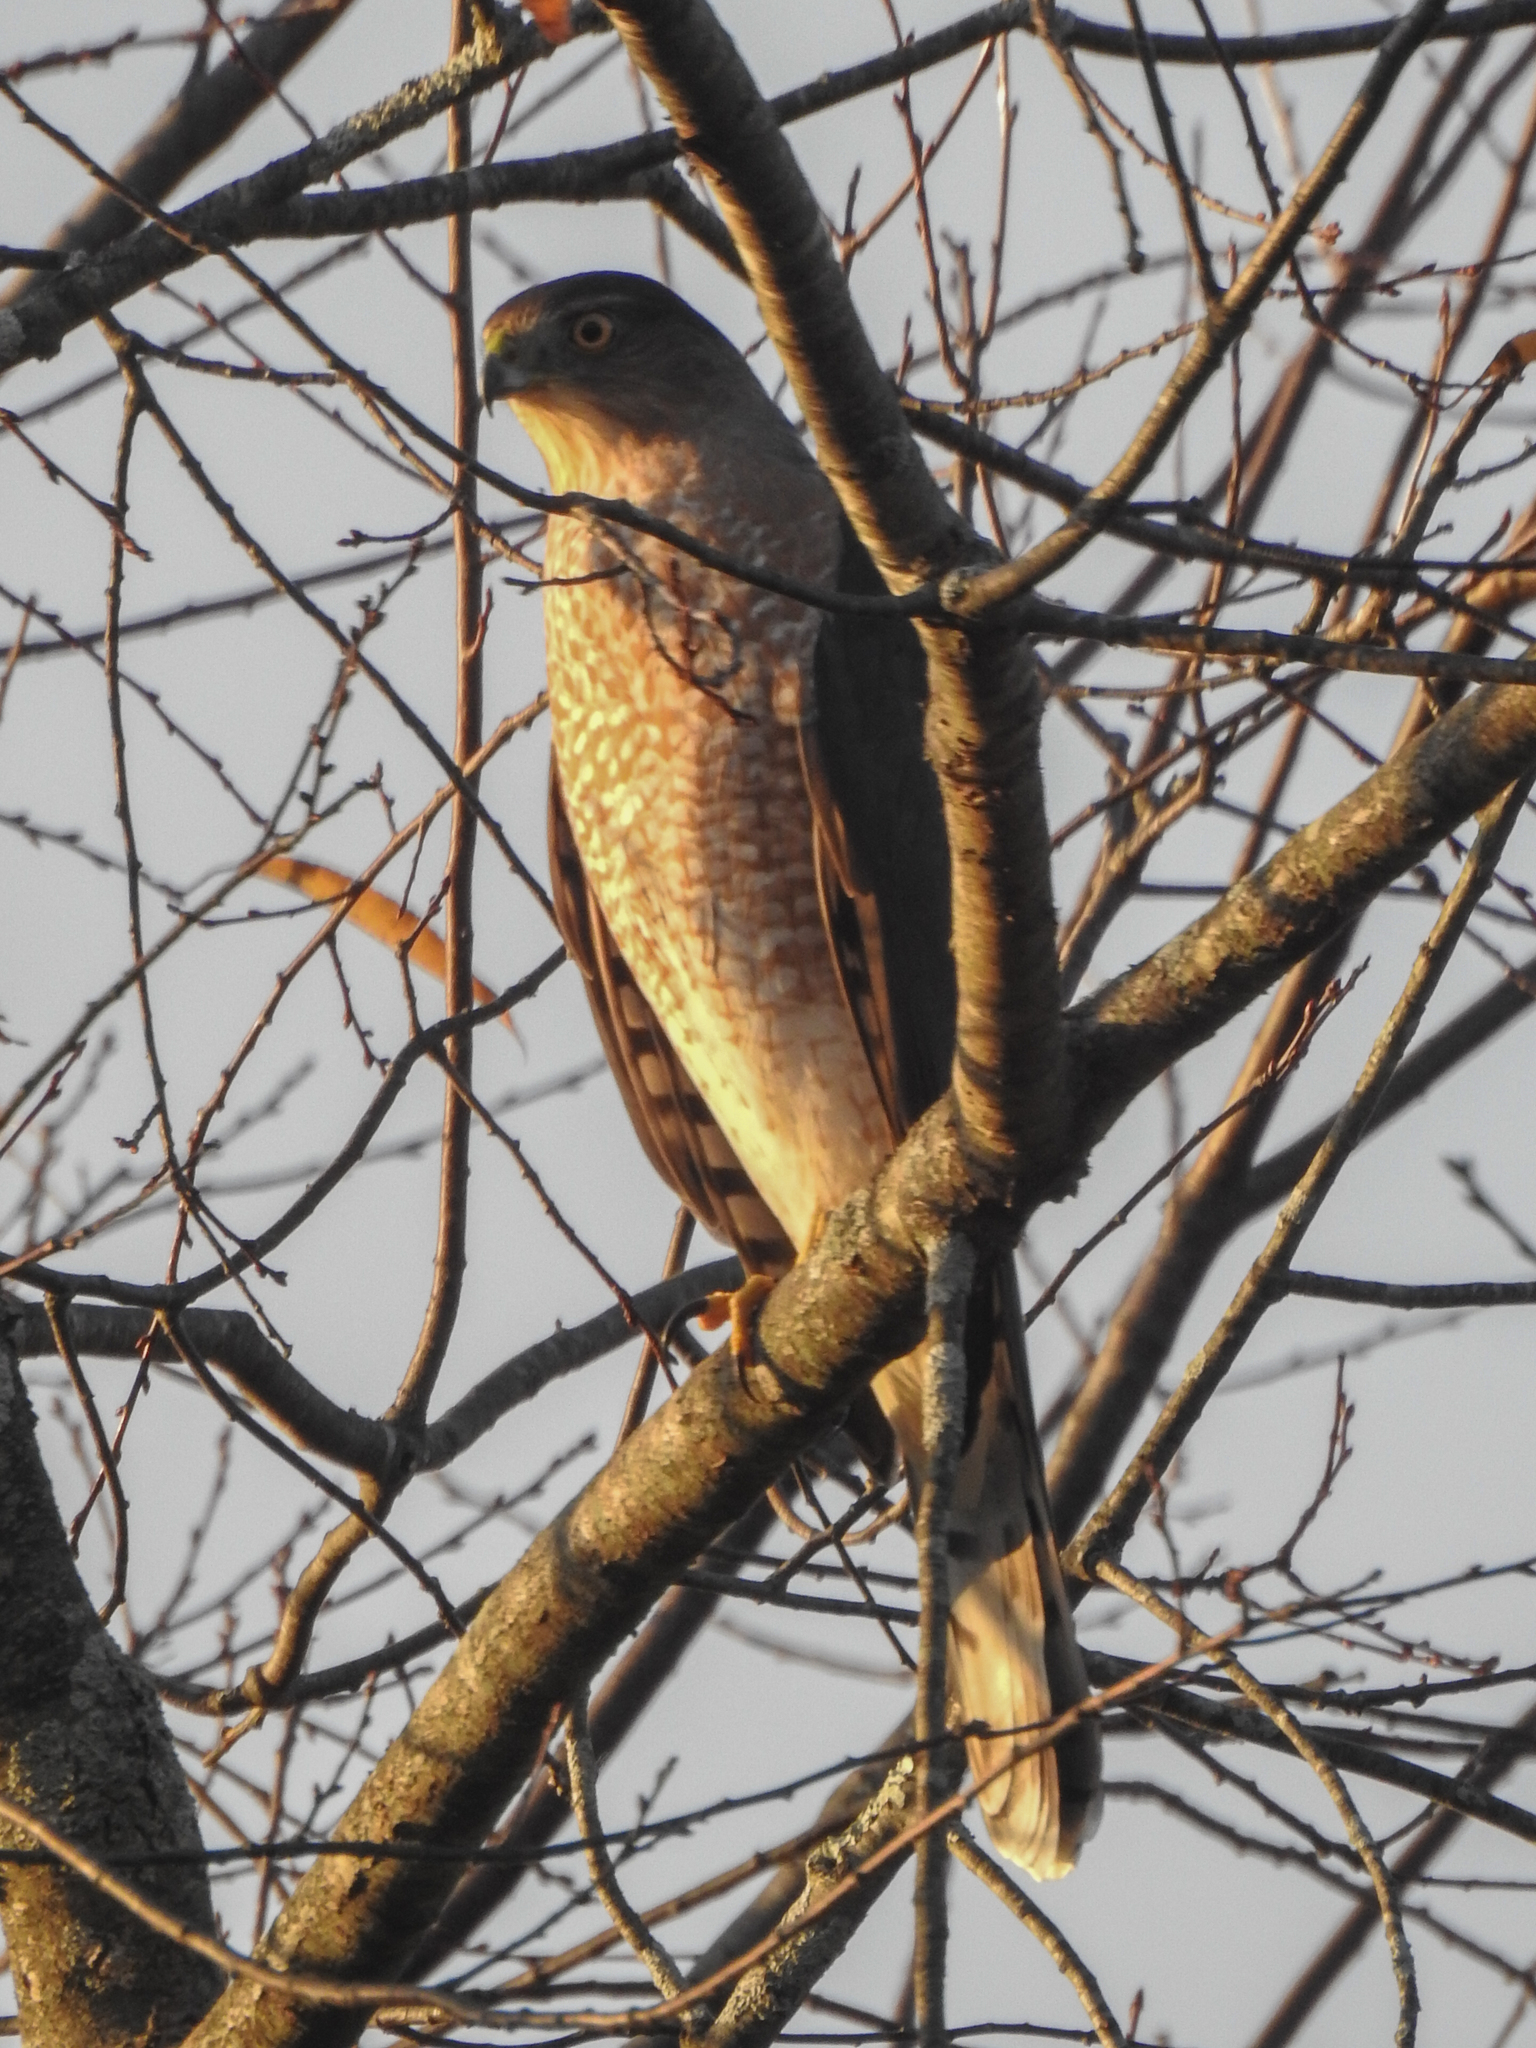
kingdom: Animalia
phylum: Chordata
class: Aves
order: Accipitriformes
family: Accipitridae
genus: Accipiter
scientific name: Accipiter cooperii
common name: Cooper's hawk
